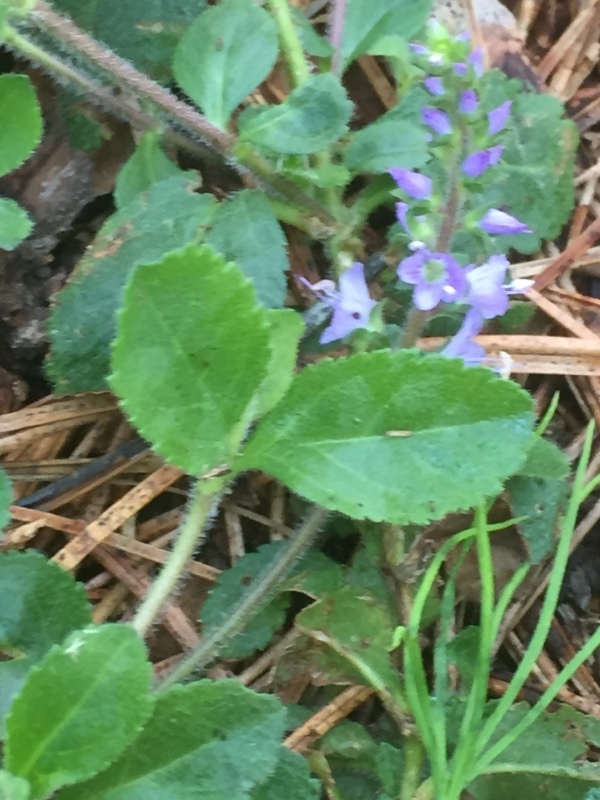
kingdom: Plantae
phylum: Tracheophyta
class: Magnoliopsida
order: Lamiales
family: Plantaginaceae
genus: Veronica
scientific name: Veronica officinalis
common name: Common speedwell
